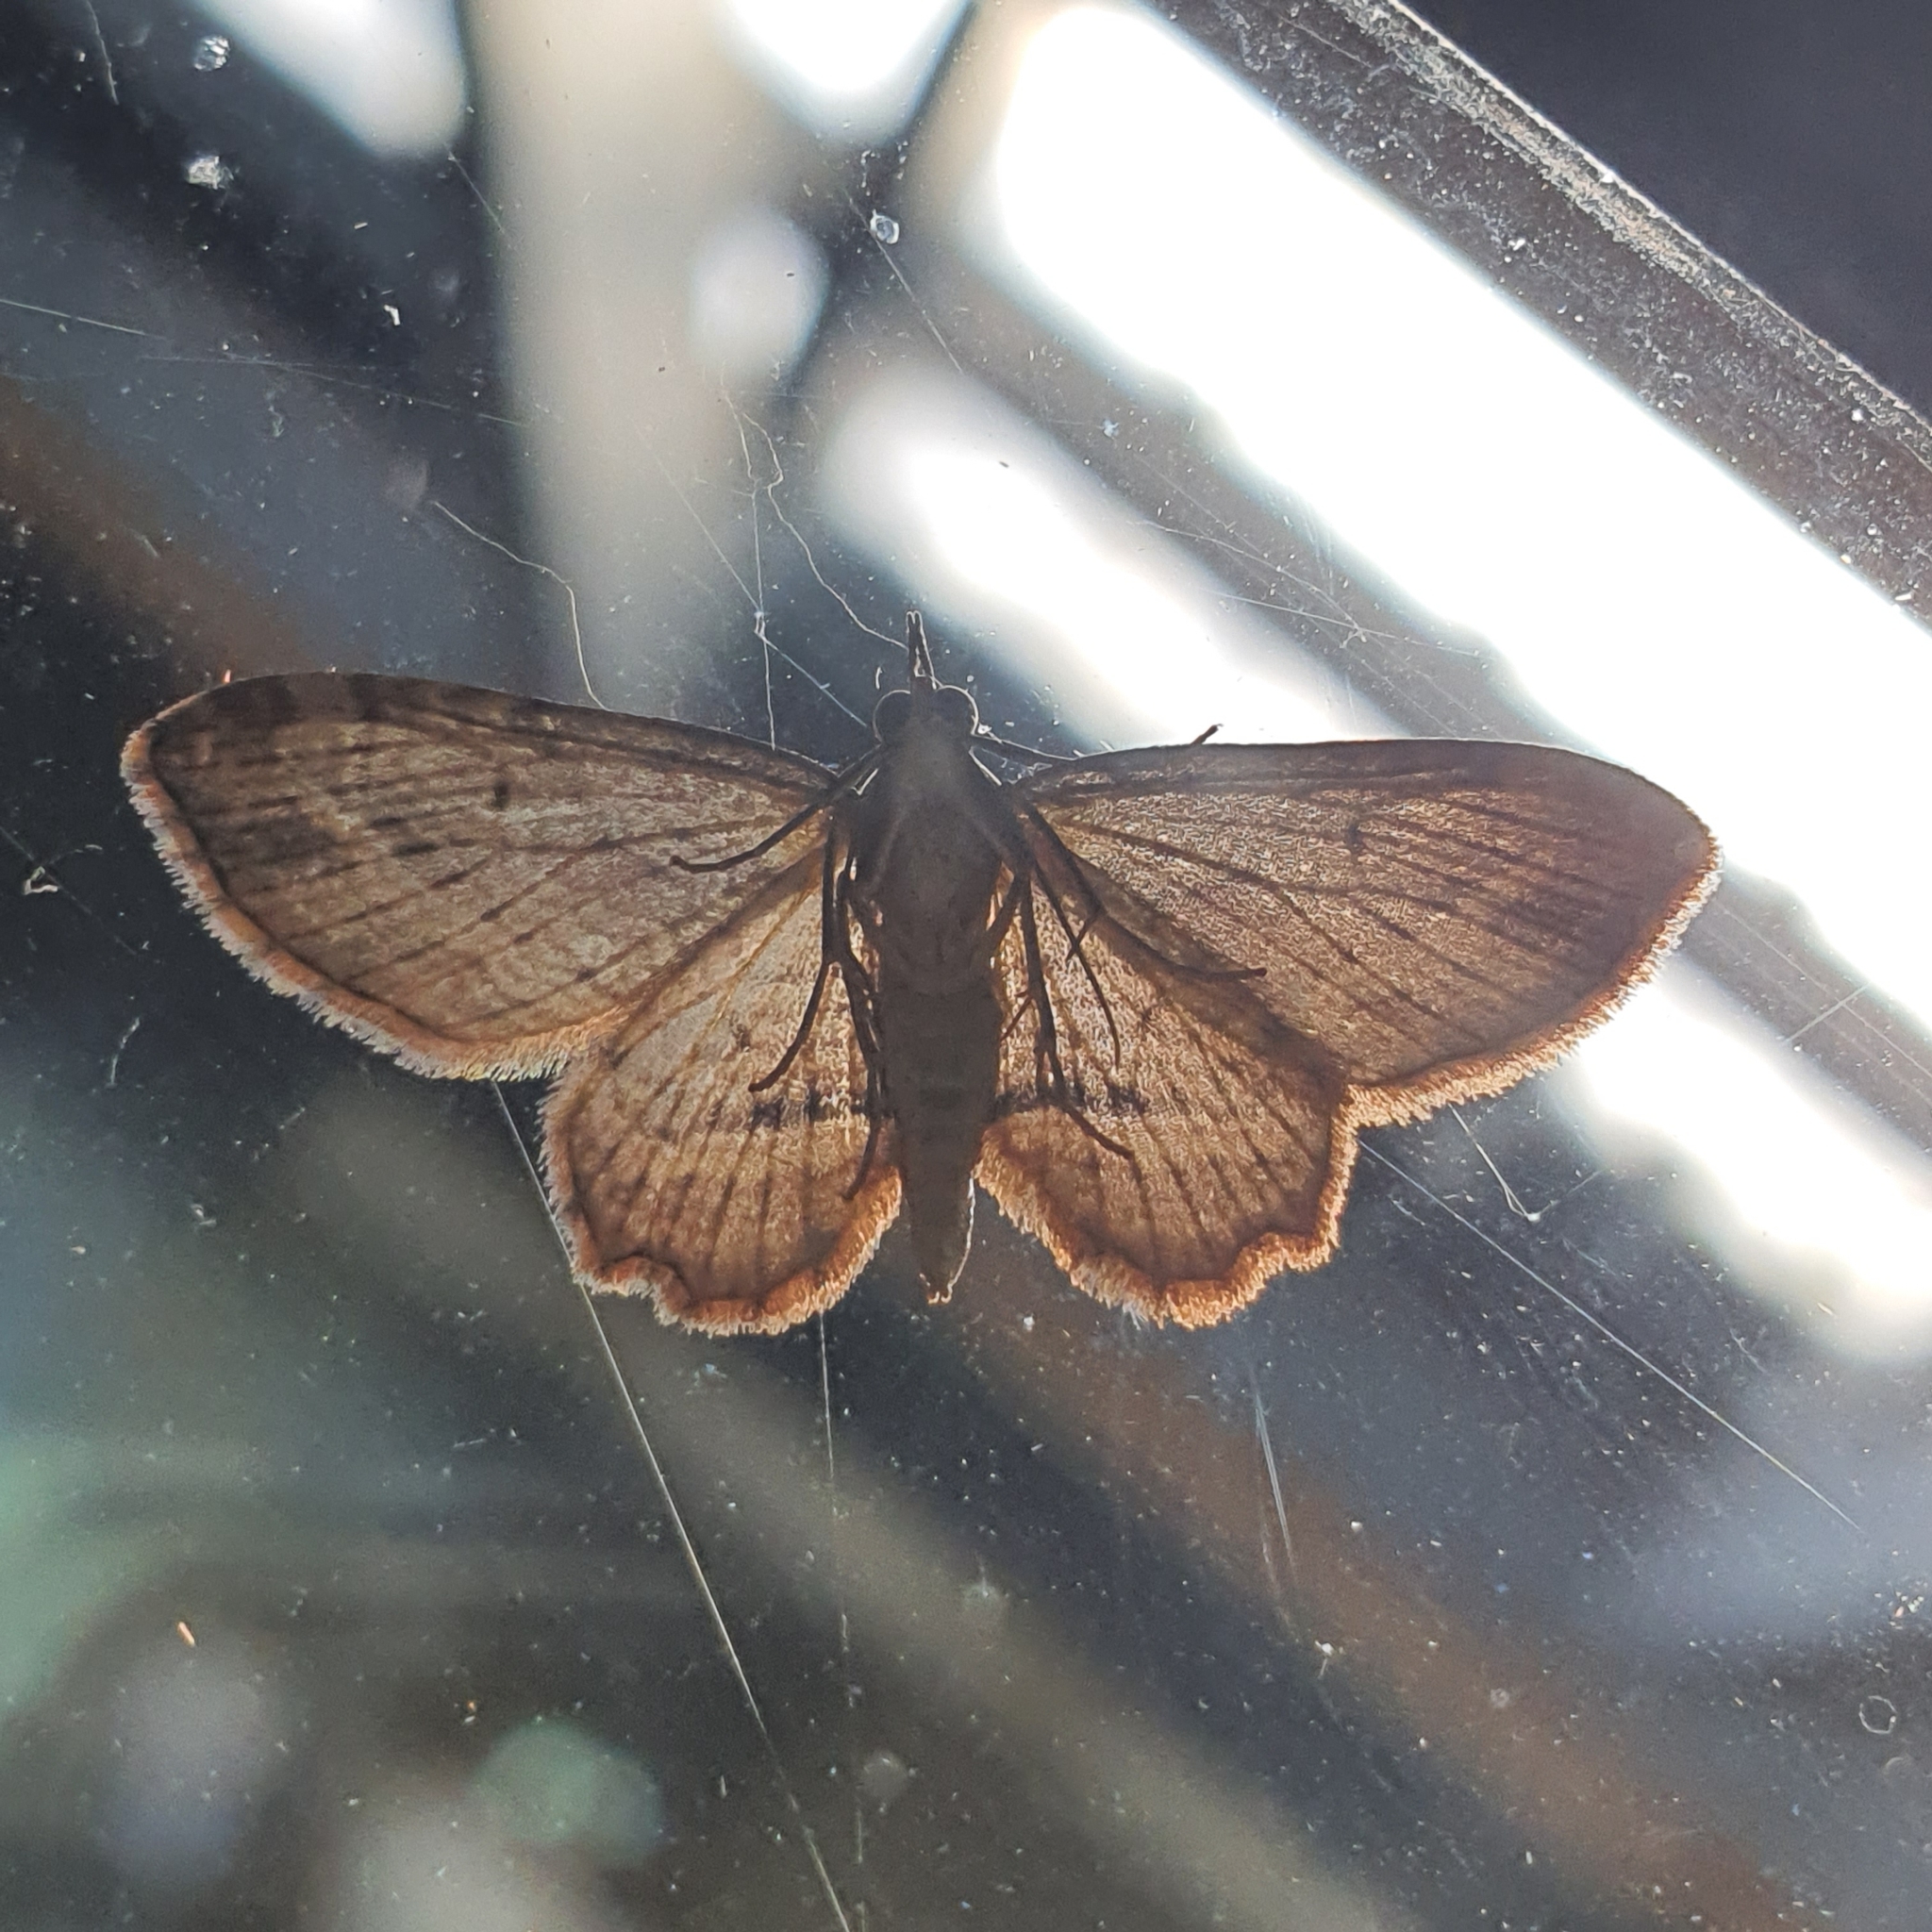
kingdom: Animalia
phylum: Arthropoda
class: Insecta
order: Lepidoptera
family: Geometridae
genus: Chloroclystis
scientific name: Chloroclystis filata
